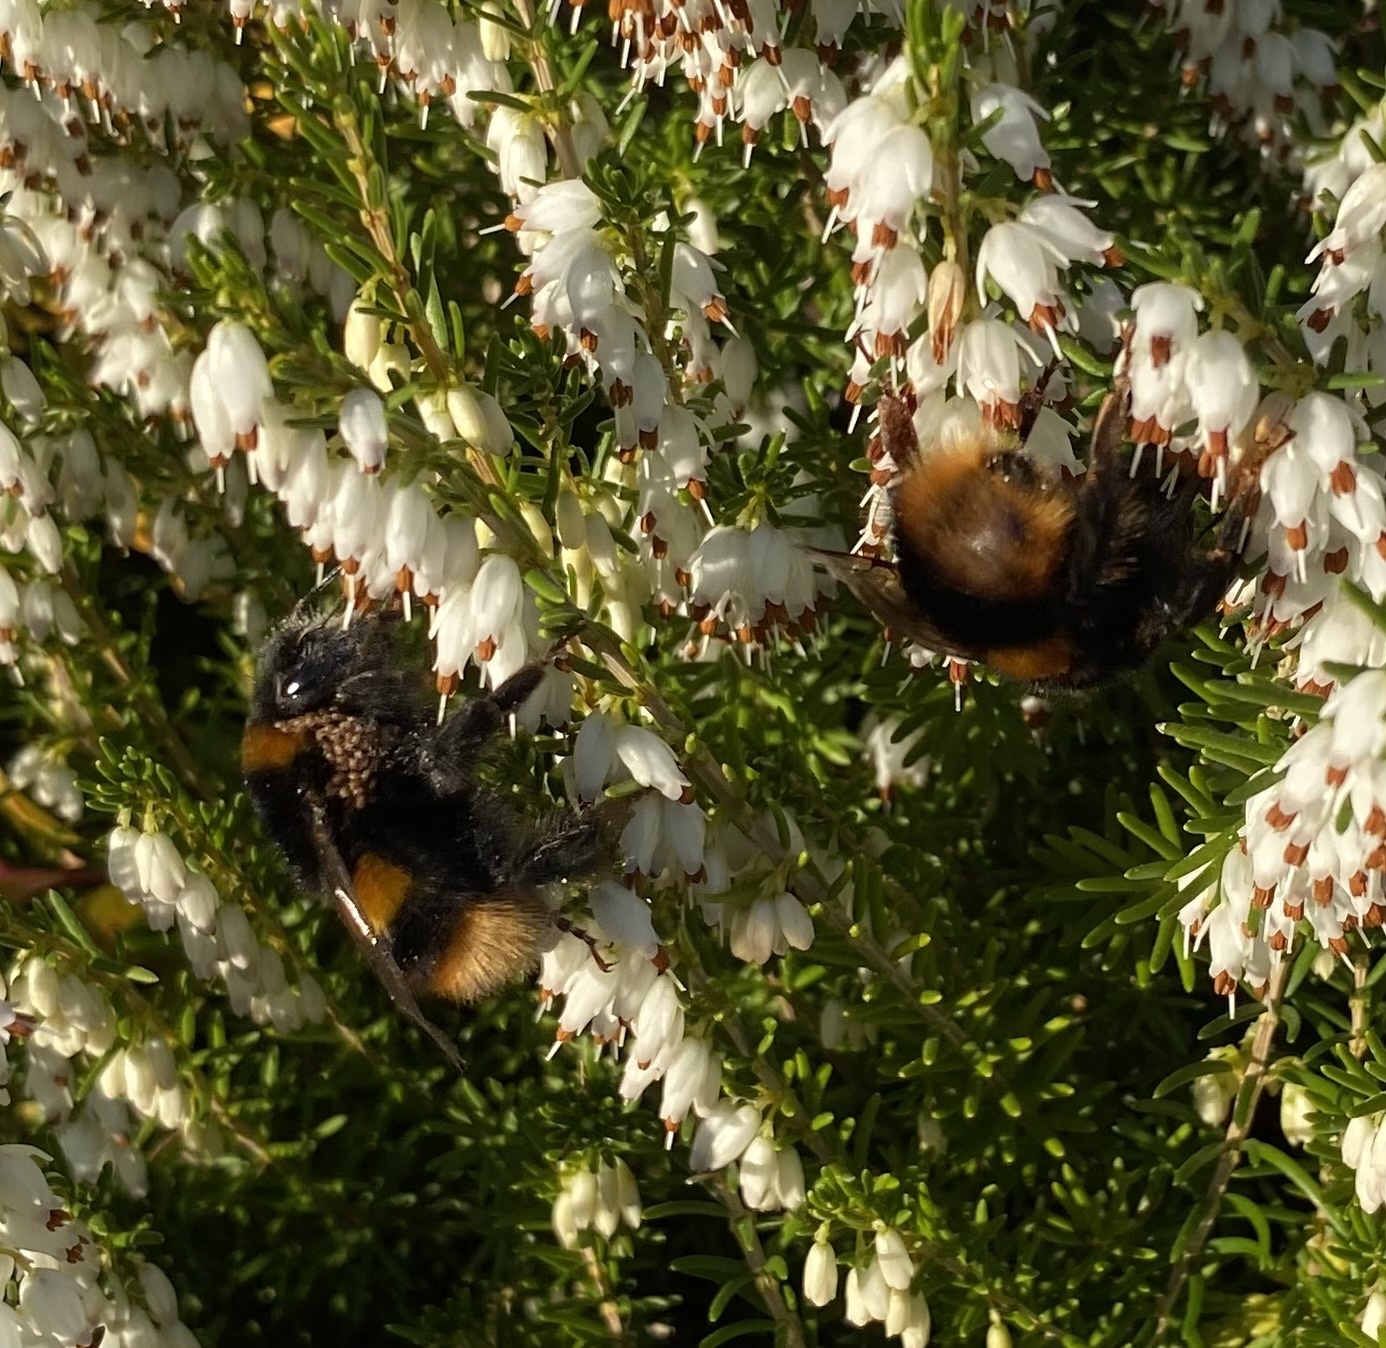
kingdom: Animalia
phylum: Arthropoda
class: Insecta
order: Hymenoptera
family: Apidae
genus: Bombus
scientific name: Bombus terrestris
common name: Buff-tailed bumblebee
